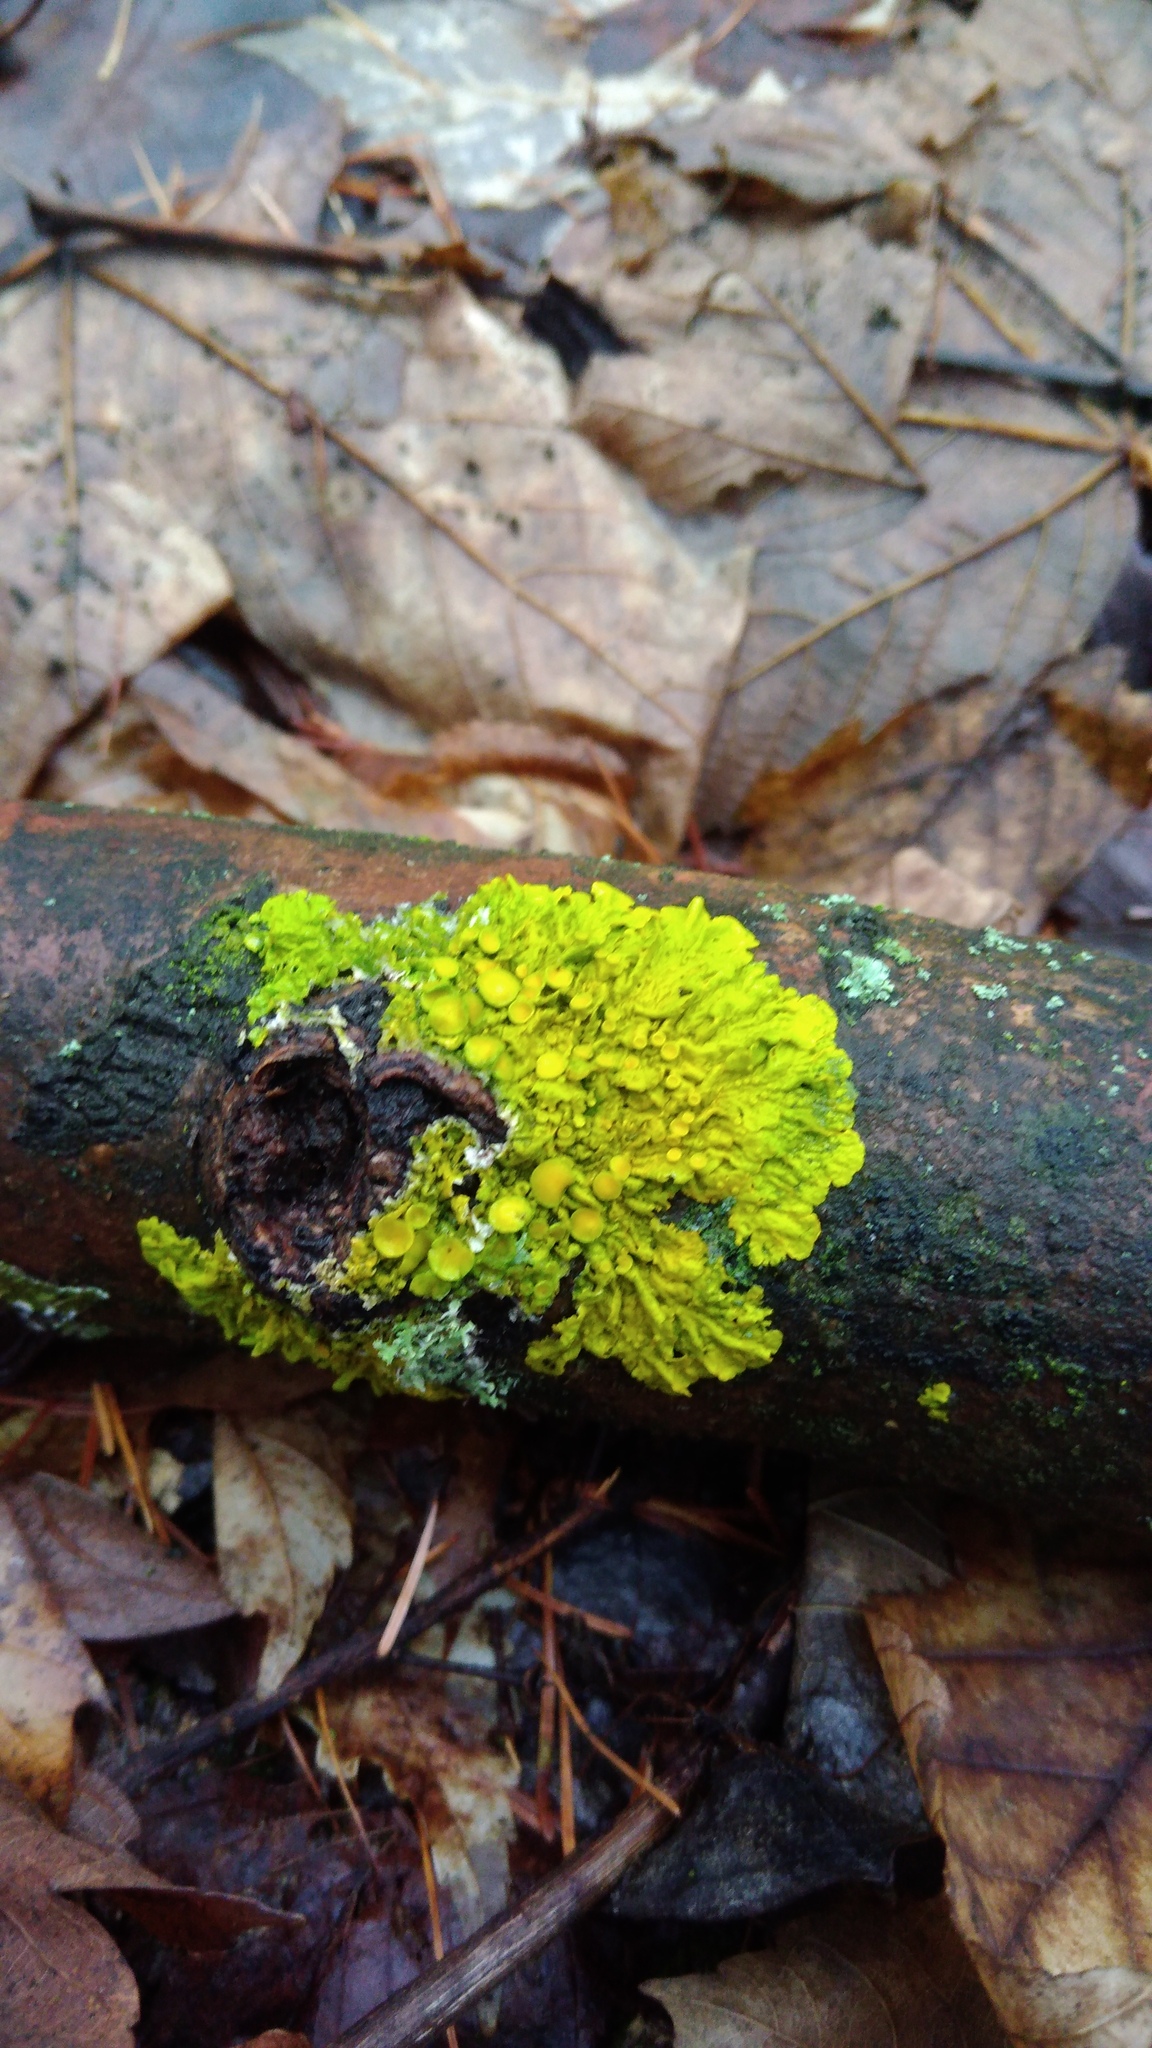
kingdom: Fungi
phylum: Ascomycota
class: Lecanoromycetes
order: Teloschistales
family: Teloschistaceae
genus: Xanthoria
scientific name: Xanthoria parietina
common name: Common orange lichen
